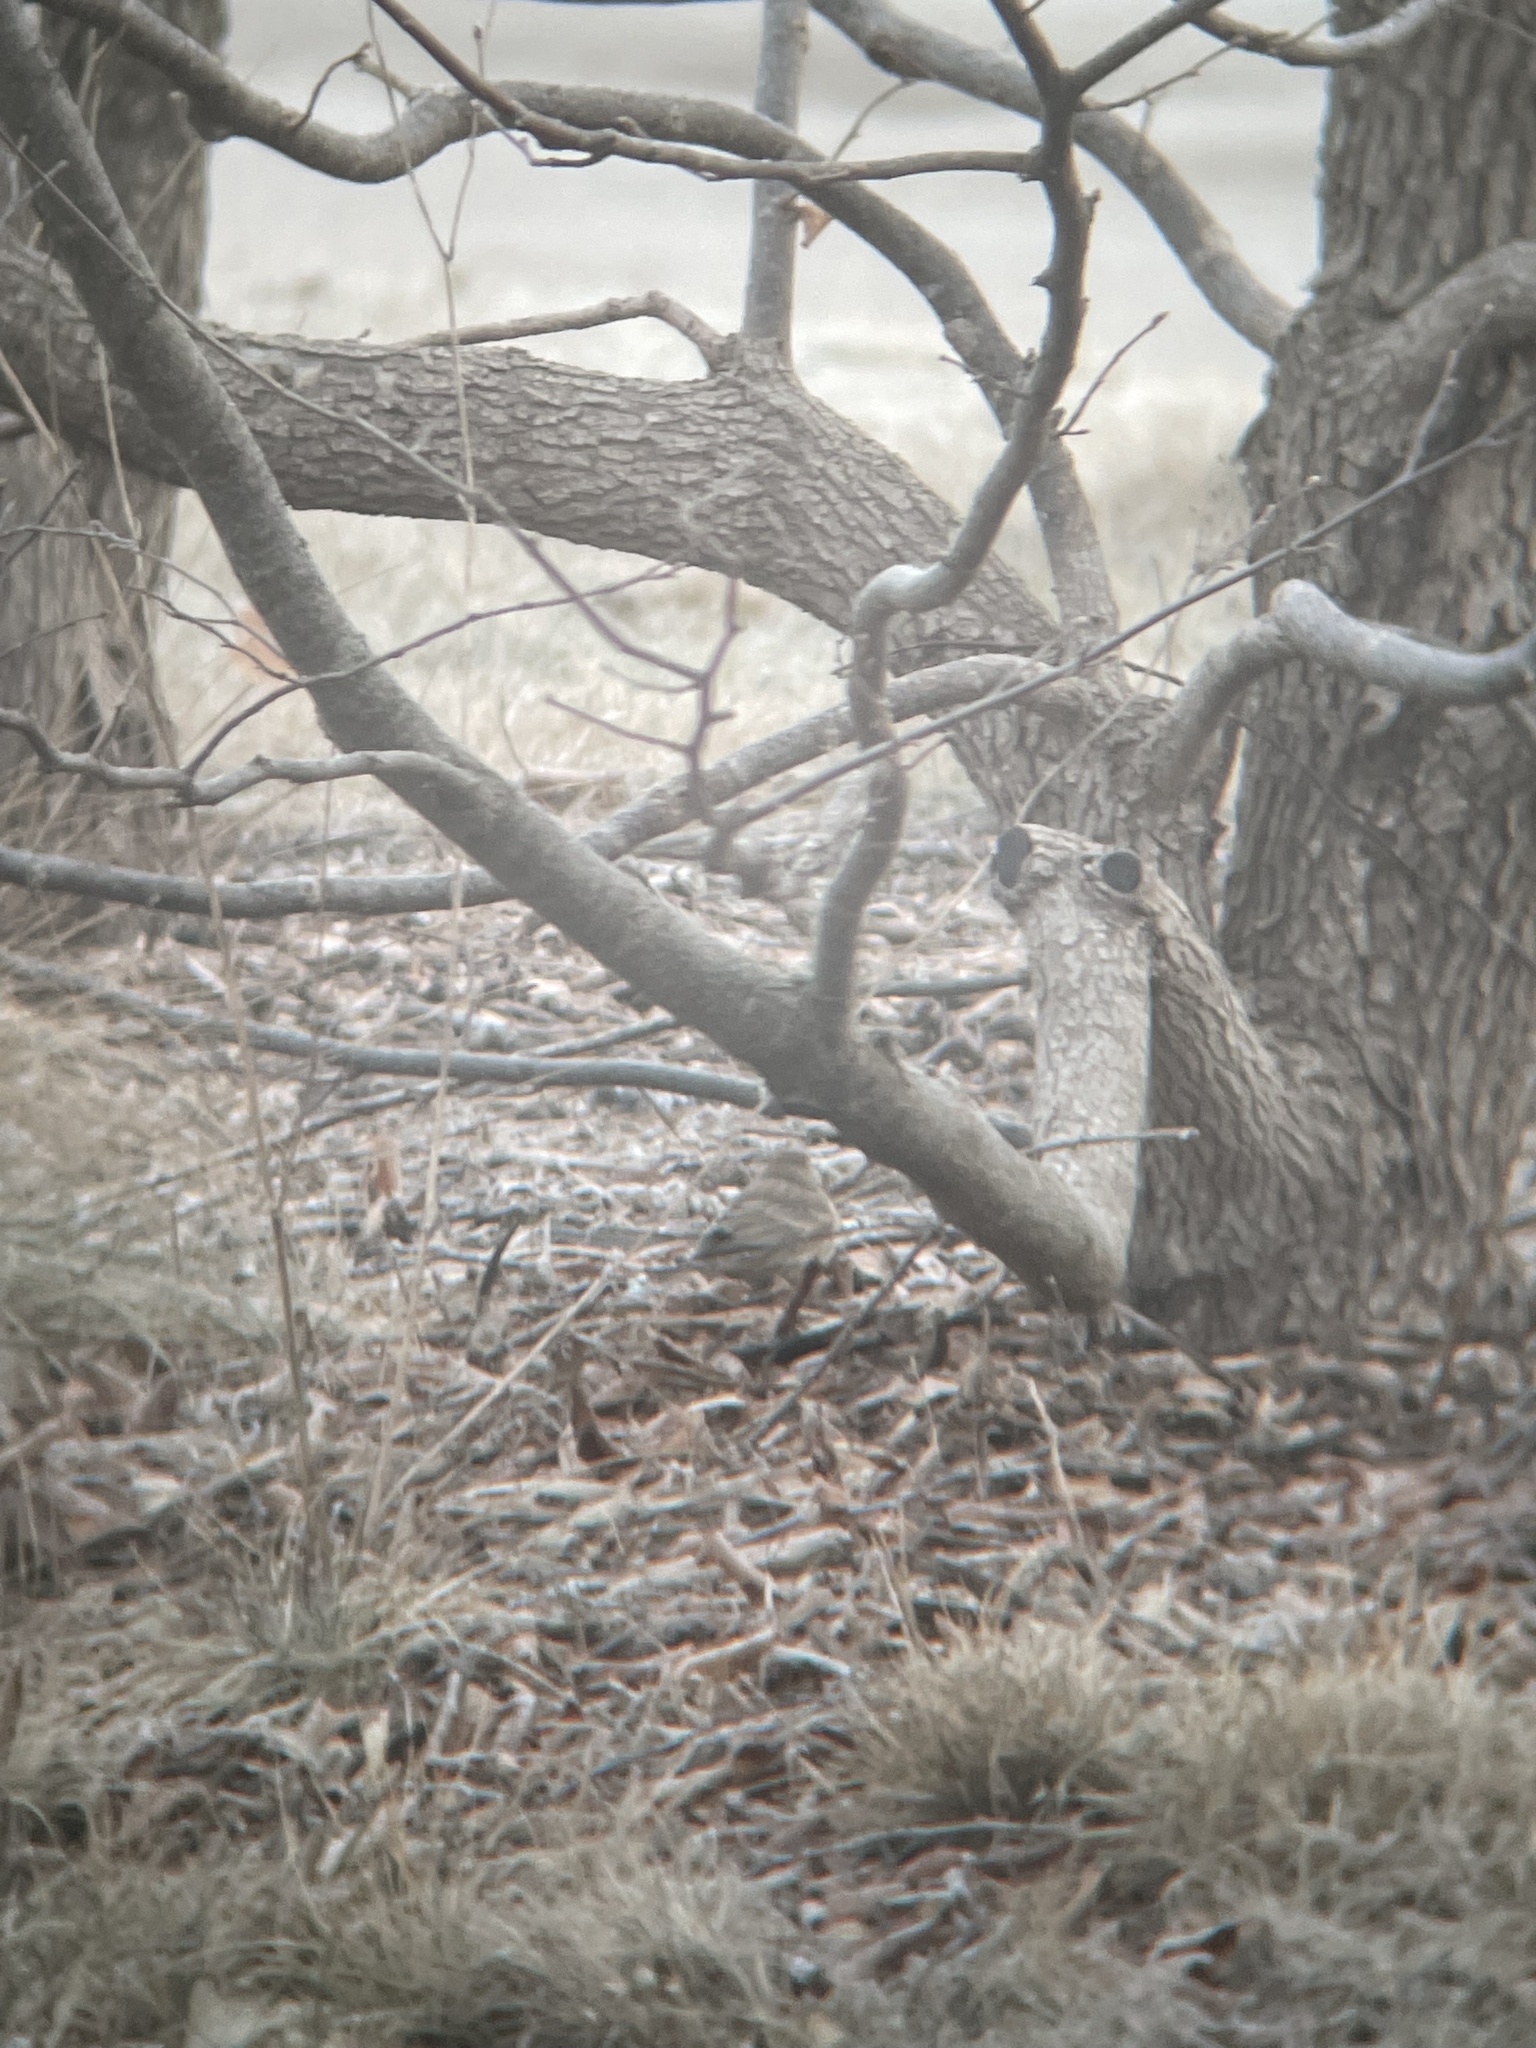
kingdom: Animalia
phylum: Chordata
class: Aves
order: Passeriformes
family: Fringillidae
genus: Haemorhous
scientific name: Haemorhous mexicanus
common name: House finch
